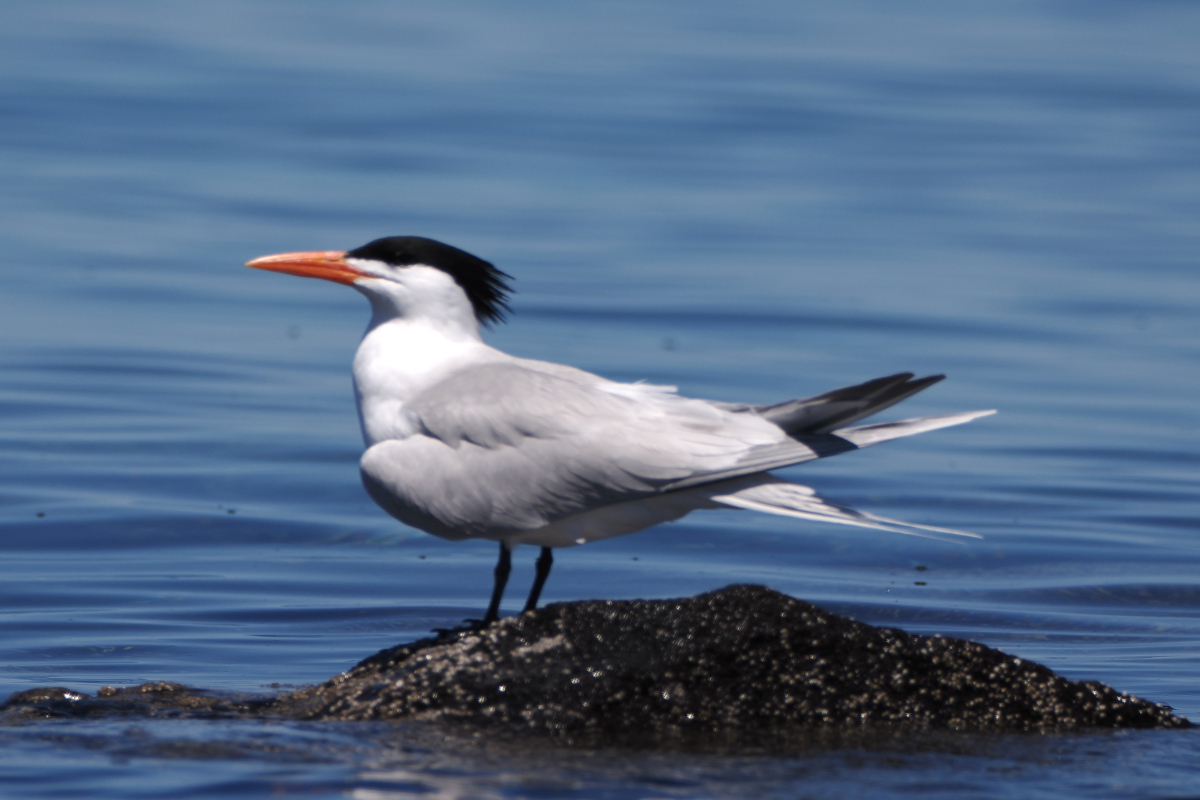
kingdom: Animalia
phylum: Chordata
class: Aves
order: Charadriiformes
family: Laridae
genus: Thalasseus
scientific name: Thalasseus maximus
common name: Royal tern
